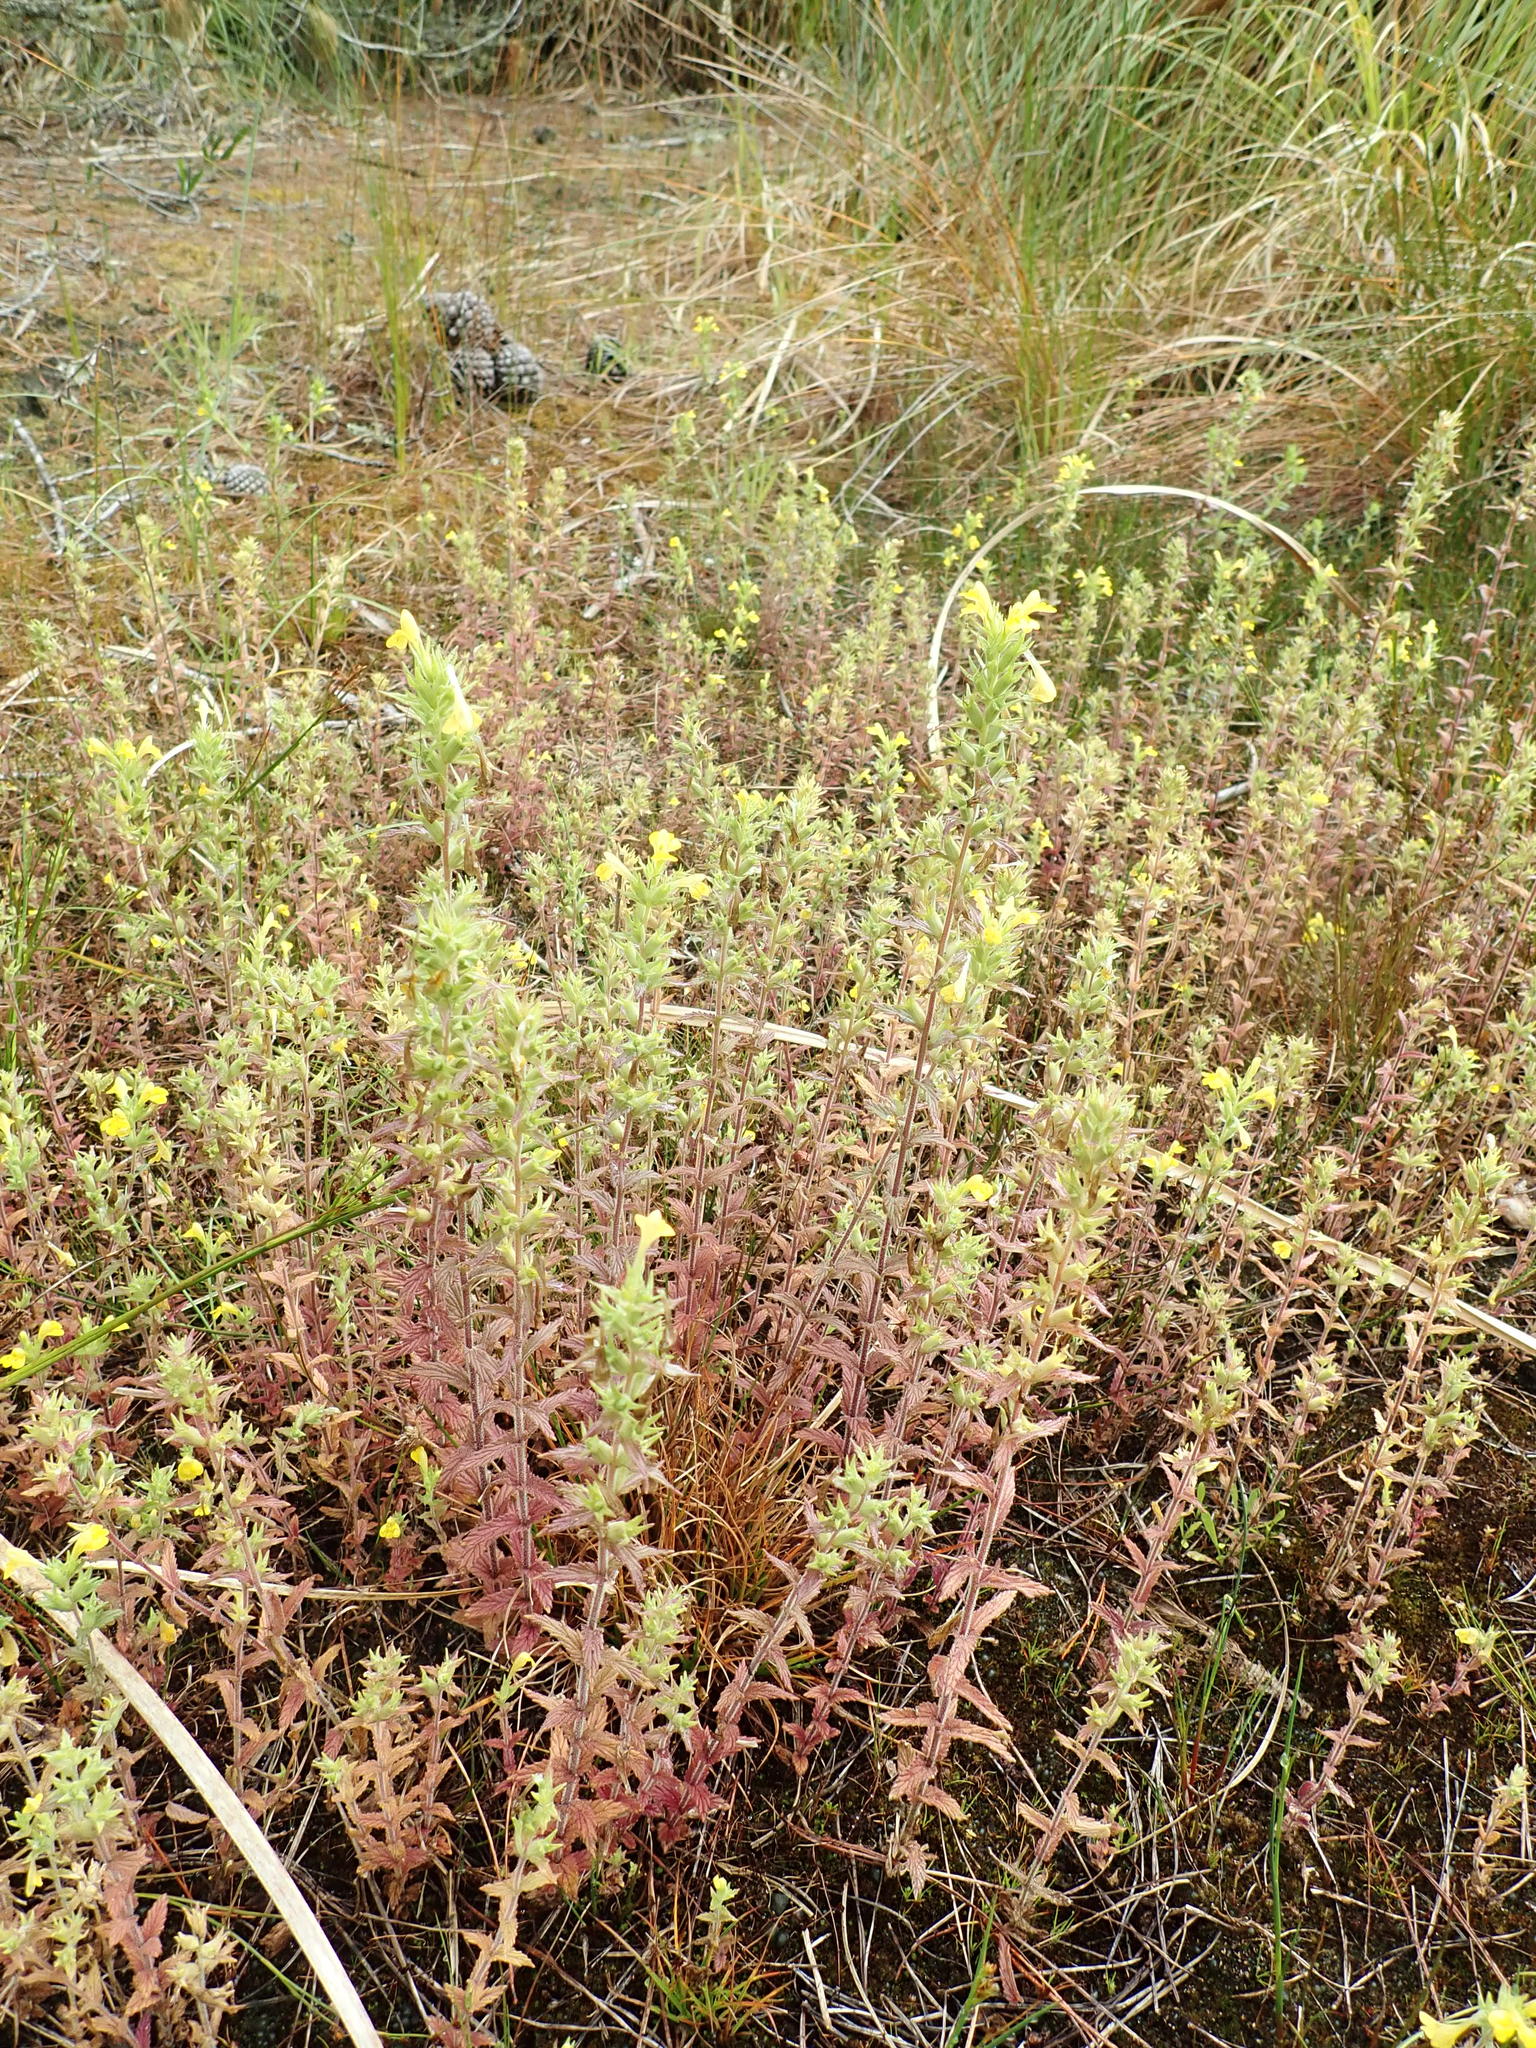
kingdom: Plantae
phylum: Tracheophyta
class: Magnoliopsida
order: Lamiales
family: Orobanchaceae
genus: Bellardia
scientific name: Bellardia viscosa
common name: Sticky parentucellia
